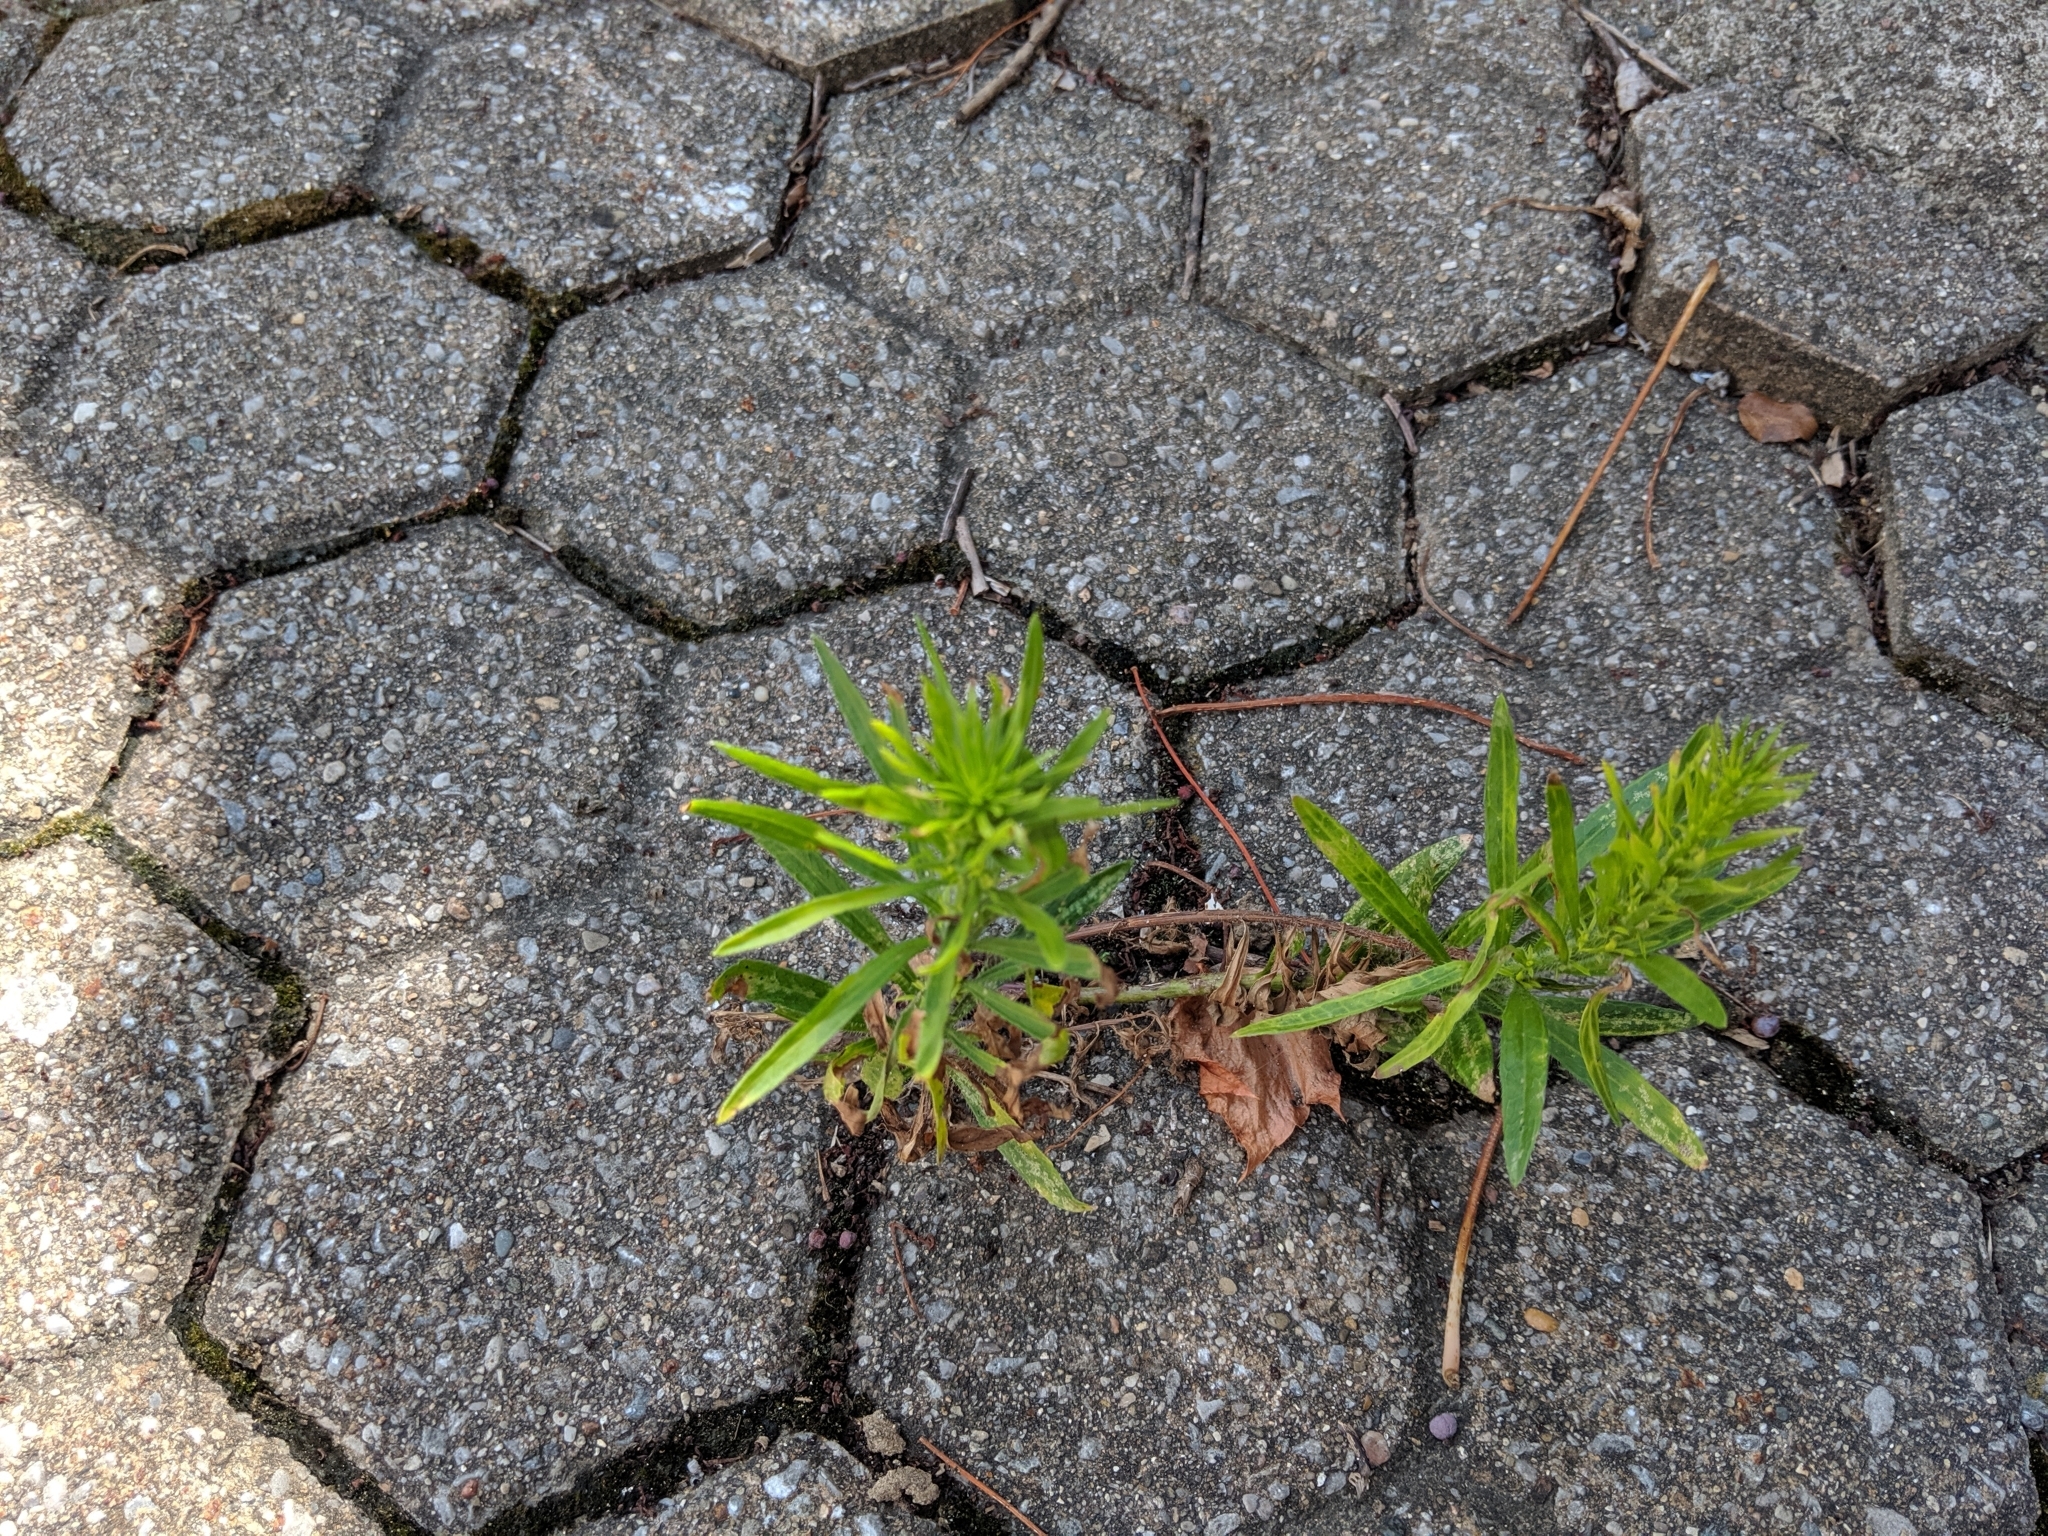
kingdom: Plantae
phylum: Tracheophyta
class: Magnoliopsida
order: Asterales
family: Asteraceae
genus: Erigeron
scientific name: Erigeron canadensis
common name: Canadian fleabane
